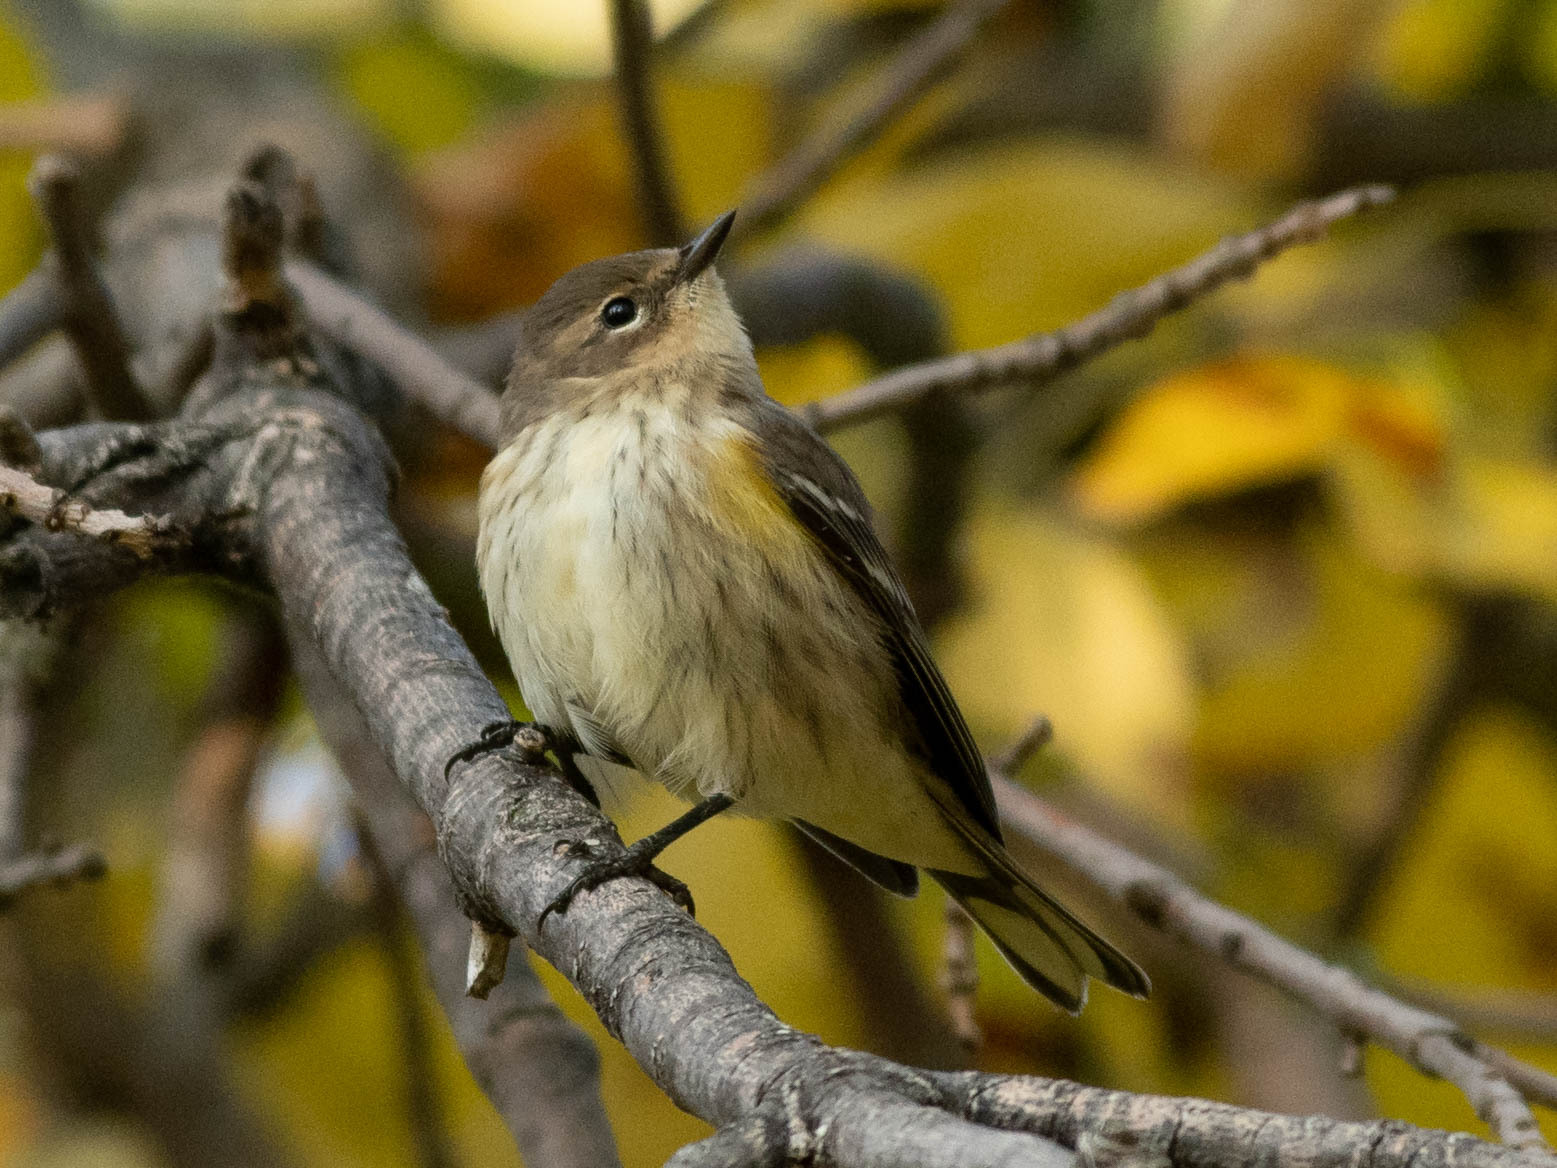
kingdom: Animalia
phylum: Chordata
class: Aves
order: Passeriformes
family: Parulidae
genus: Setophaga
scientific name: Setophaga coronata
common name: Myrtle warbler
